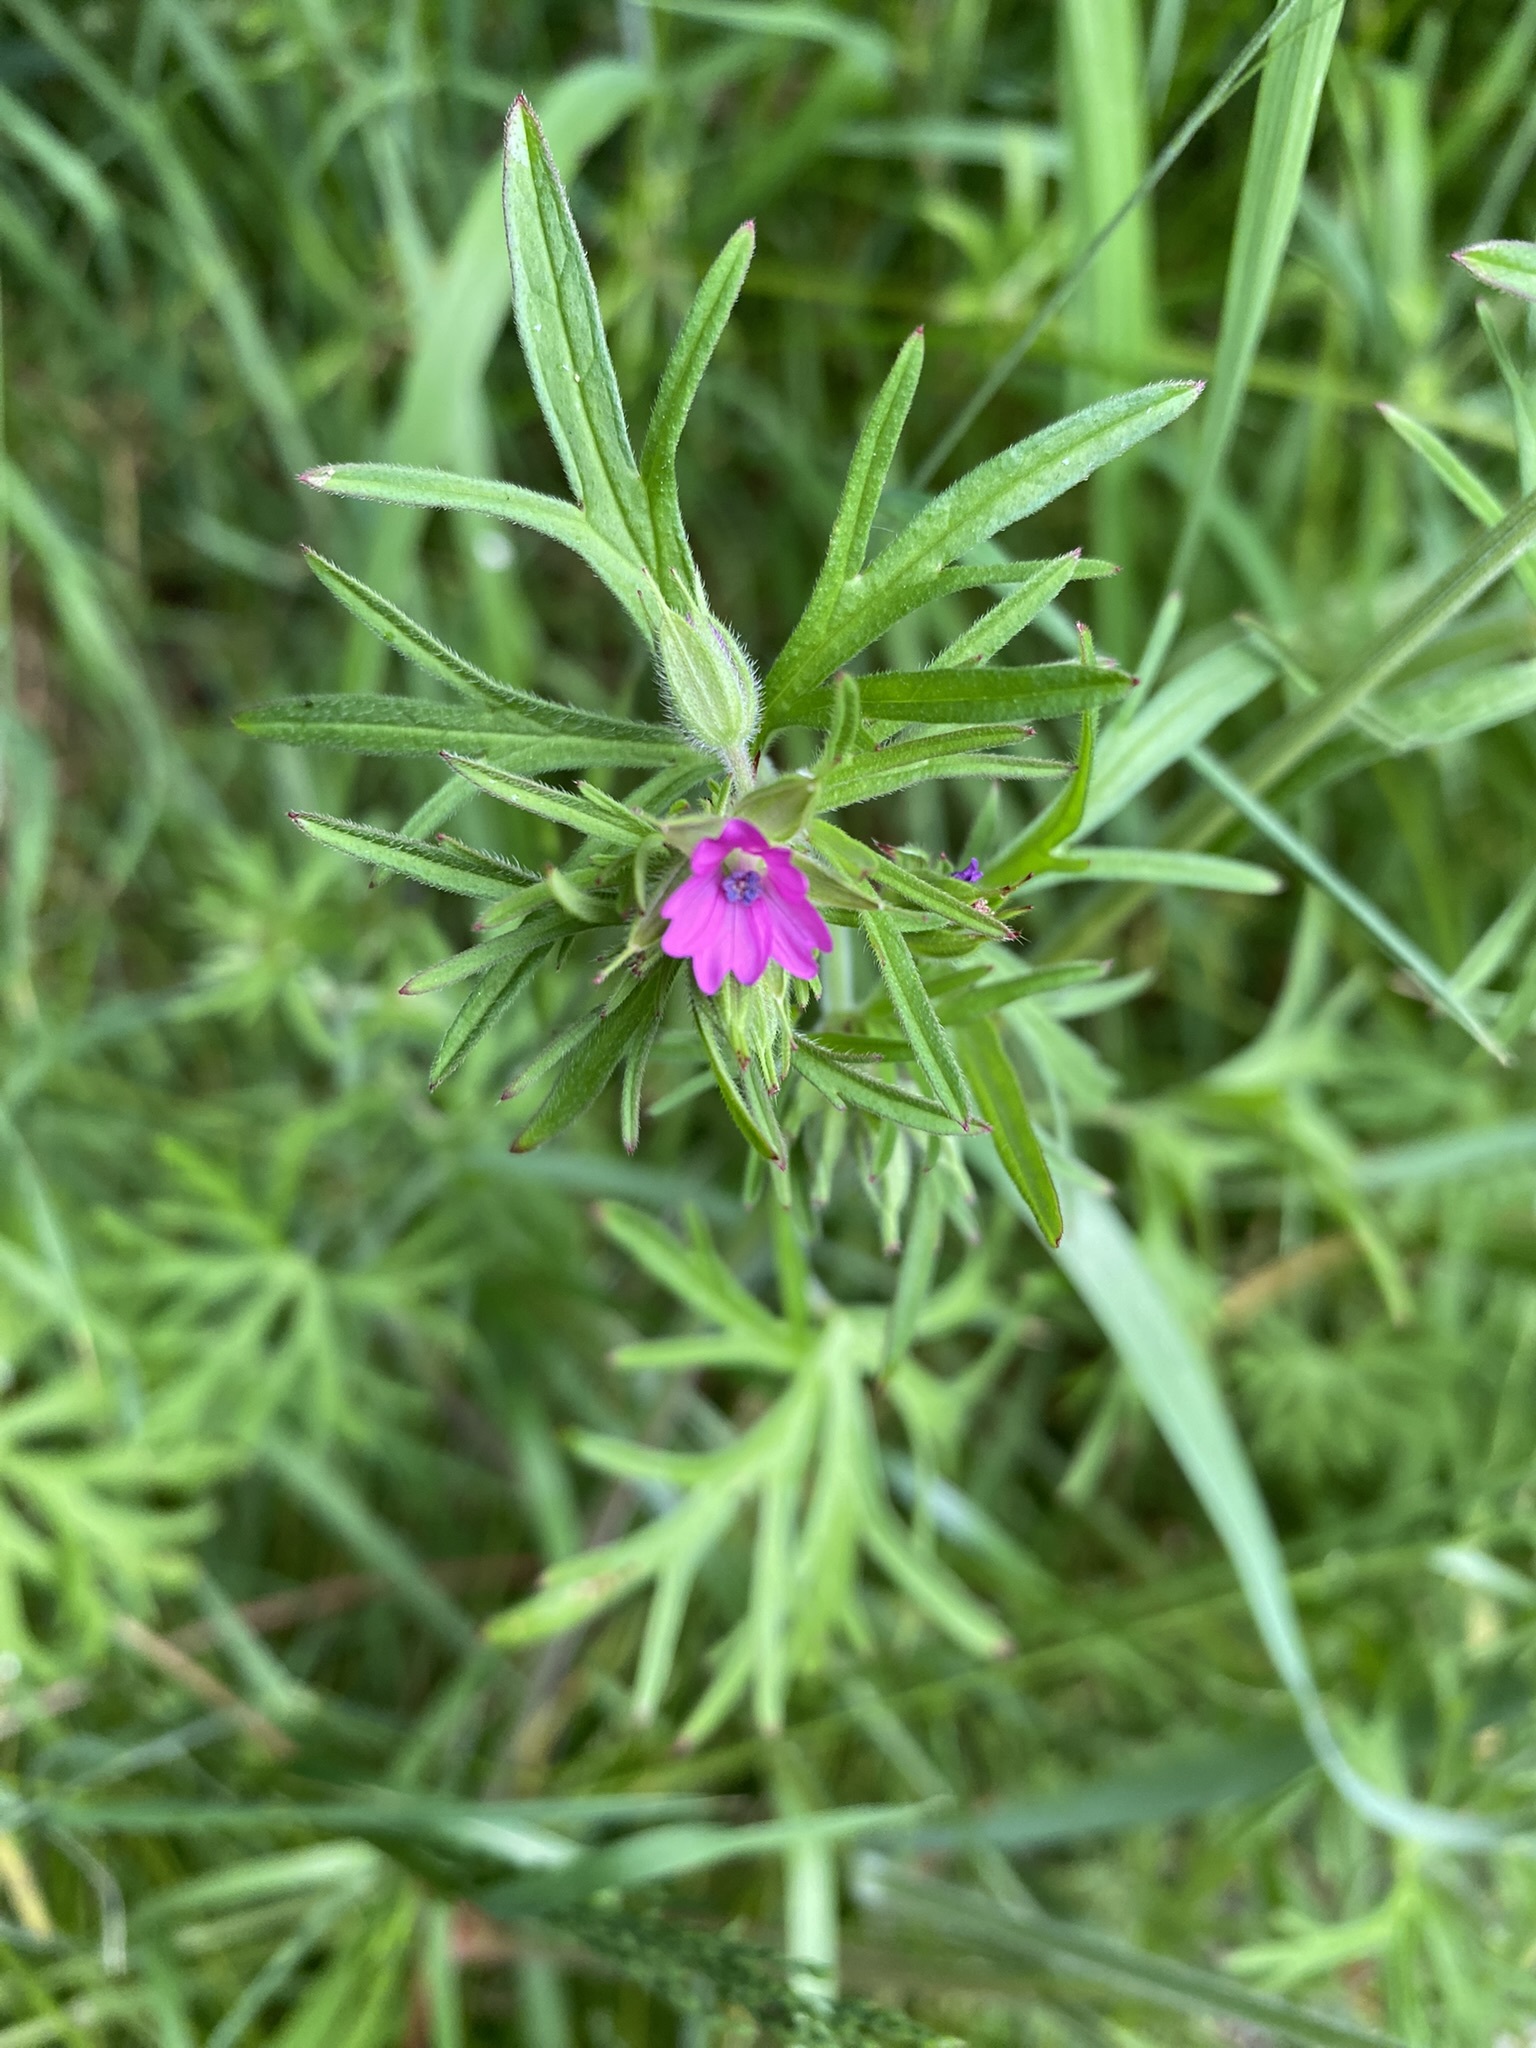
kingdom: Plantae
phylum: Tracheophyta
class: Magnoliopsida
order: Geraniales
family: Geraniaceae
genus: Geranium
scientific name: Geranium dissectum
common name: Cut-leaved crane's-bill
